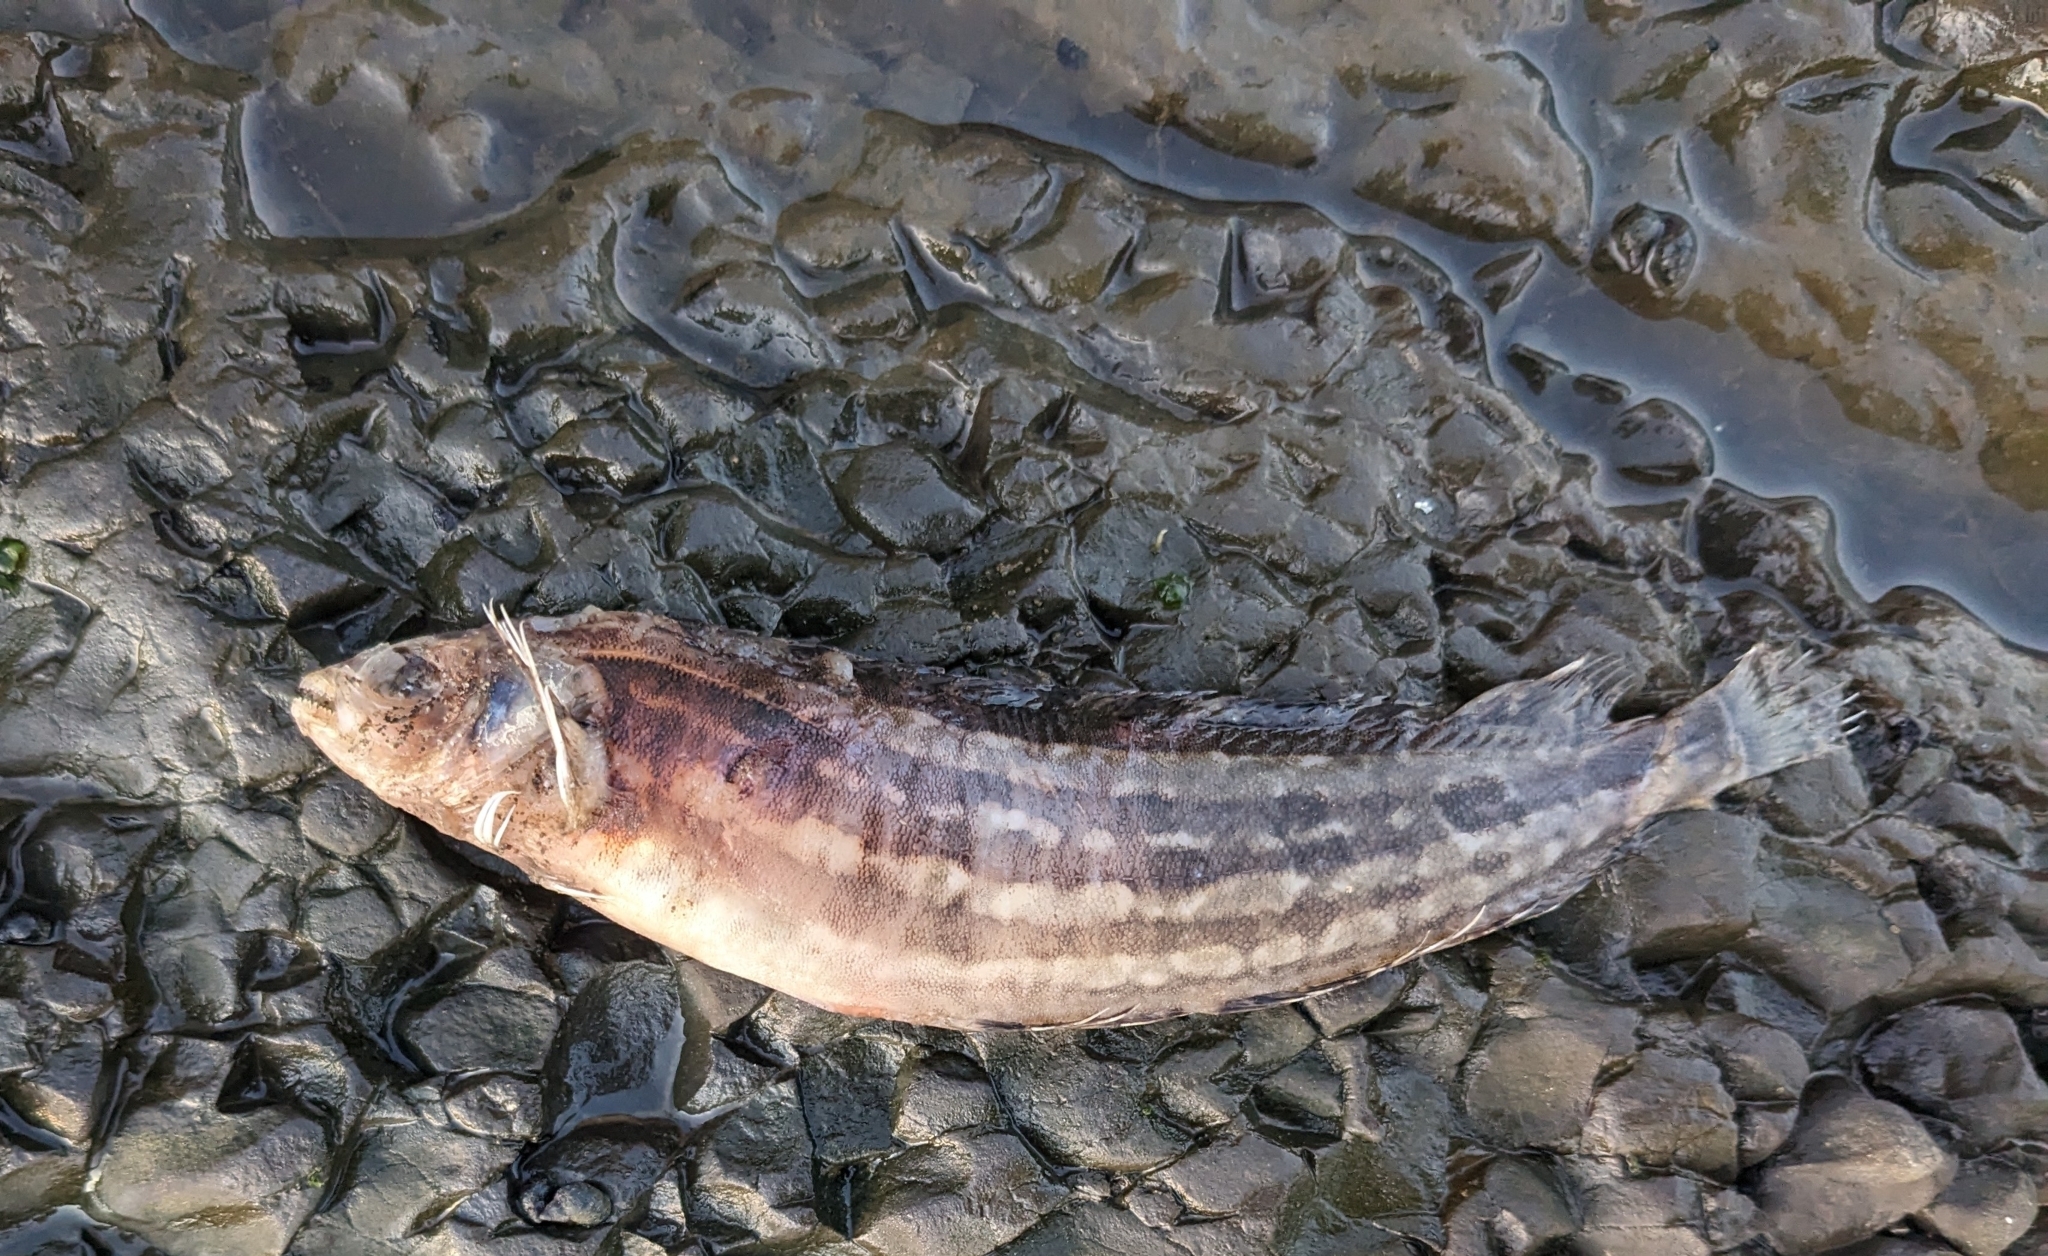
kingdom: Animalia
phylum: Chordata
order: Perciformes
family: Clinidae
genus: Gibbonsia
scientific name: Gibbonsia metzi
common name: Striped kelpfish
